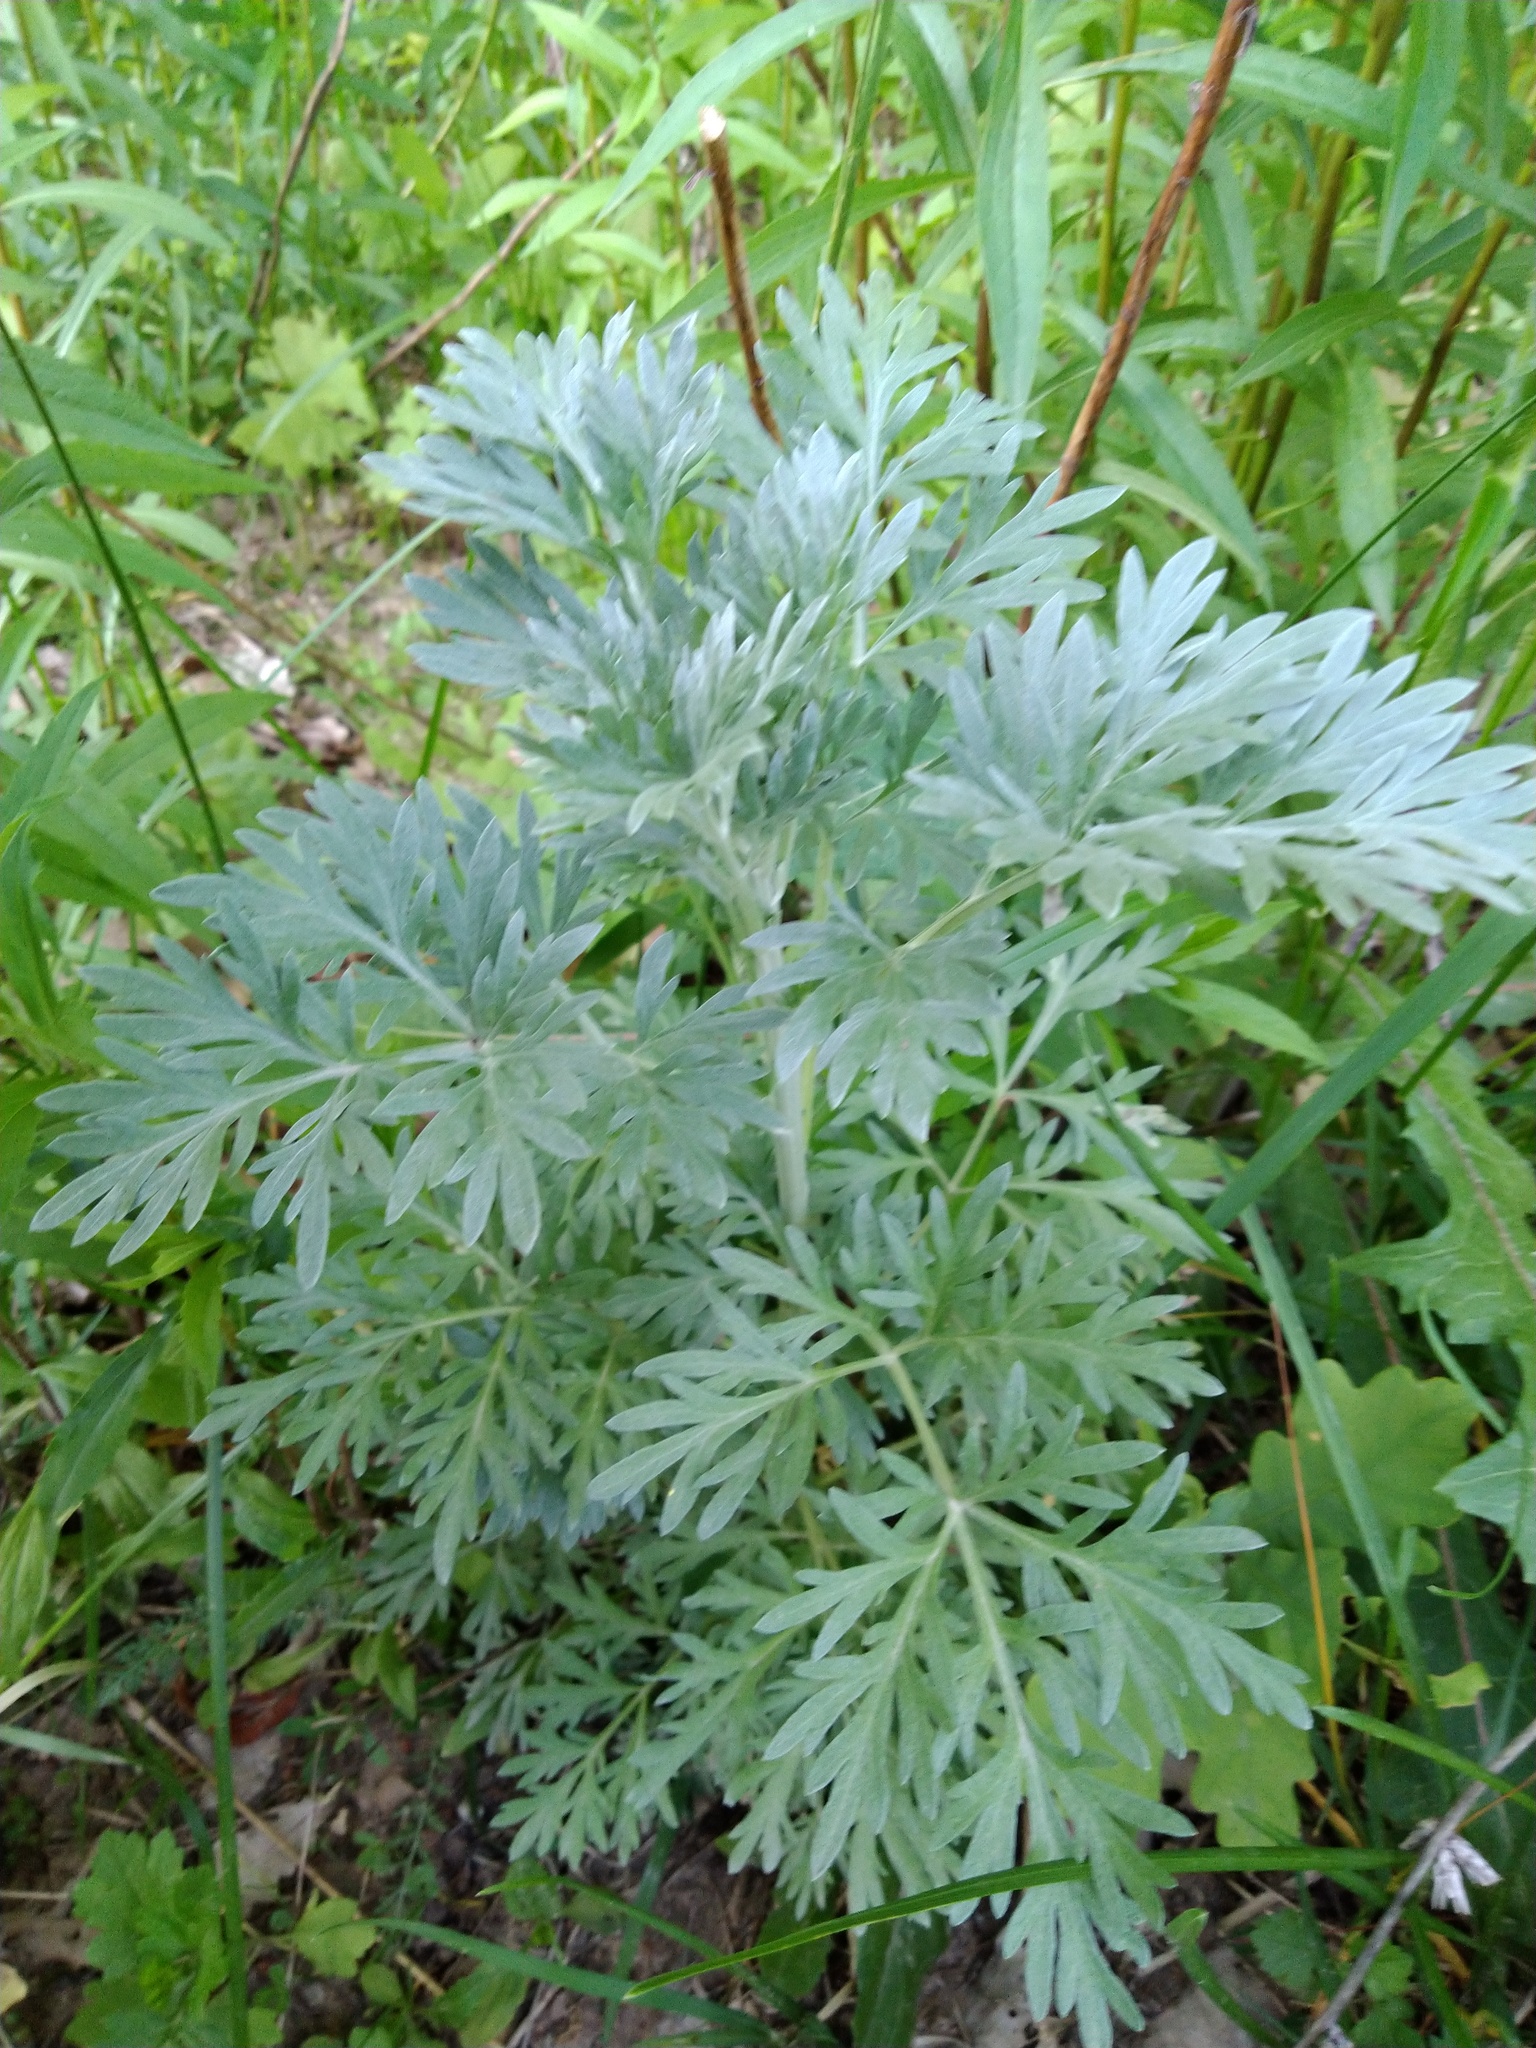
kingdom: Plantae
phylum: Tracheophyta
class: Magnoliopsida
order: Asterales
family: Asteraceae
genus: Artemisia
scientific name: Artemisia absinthium
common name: Wormwood
